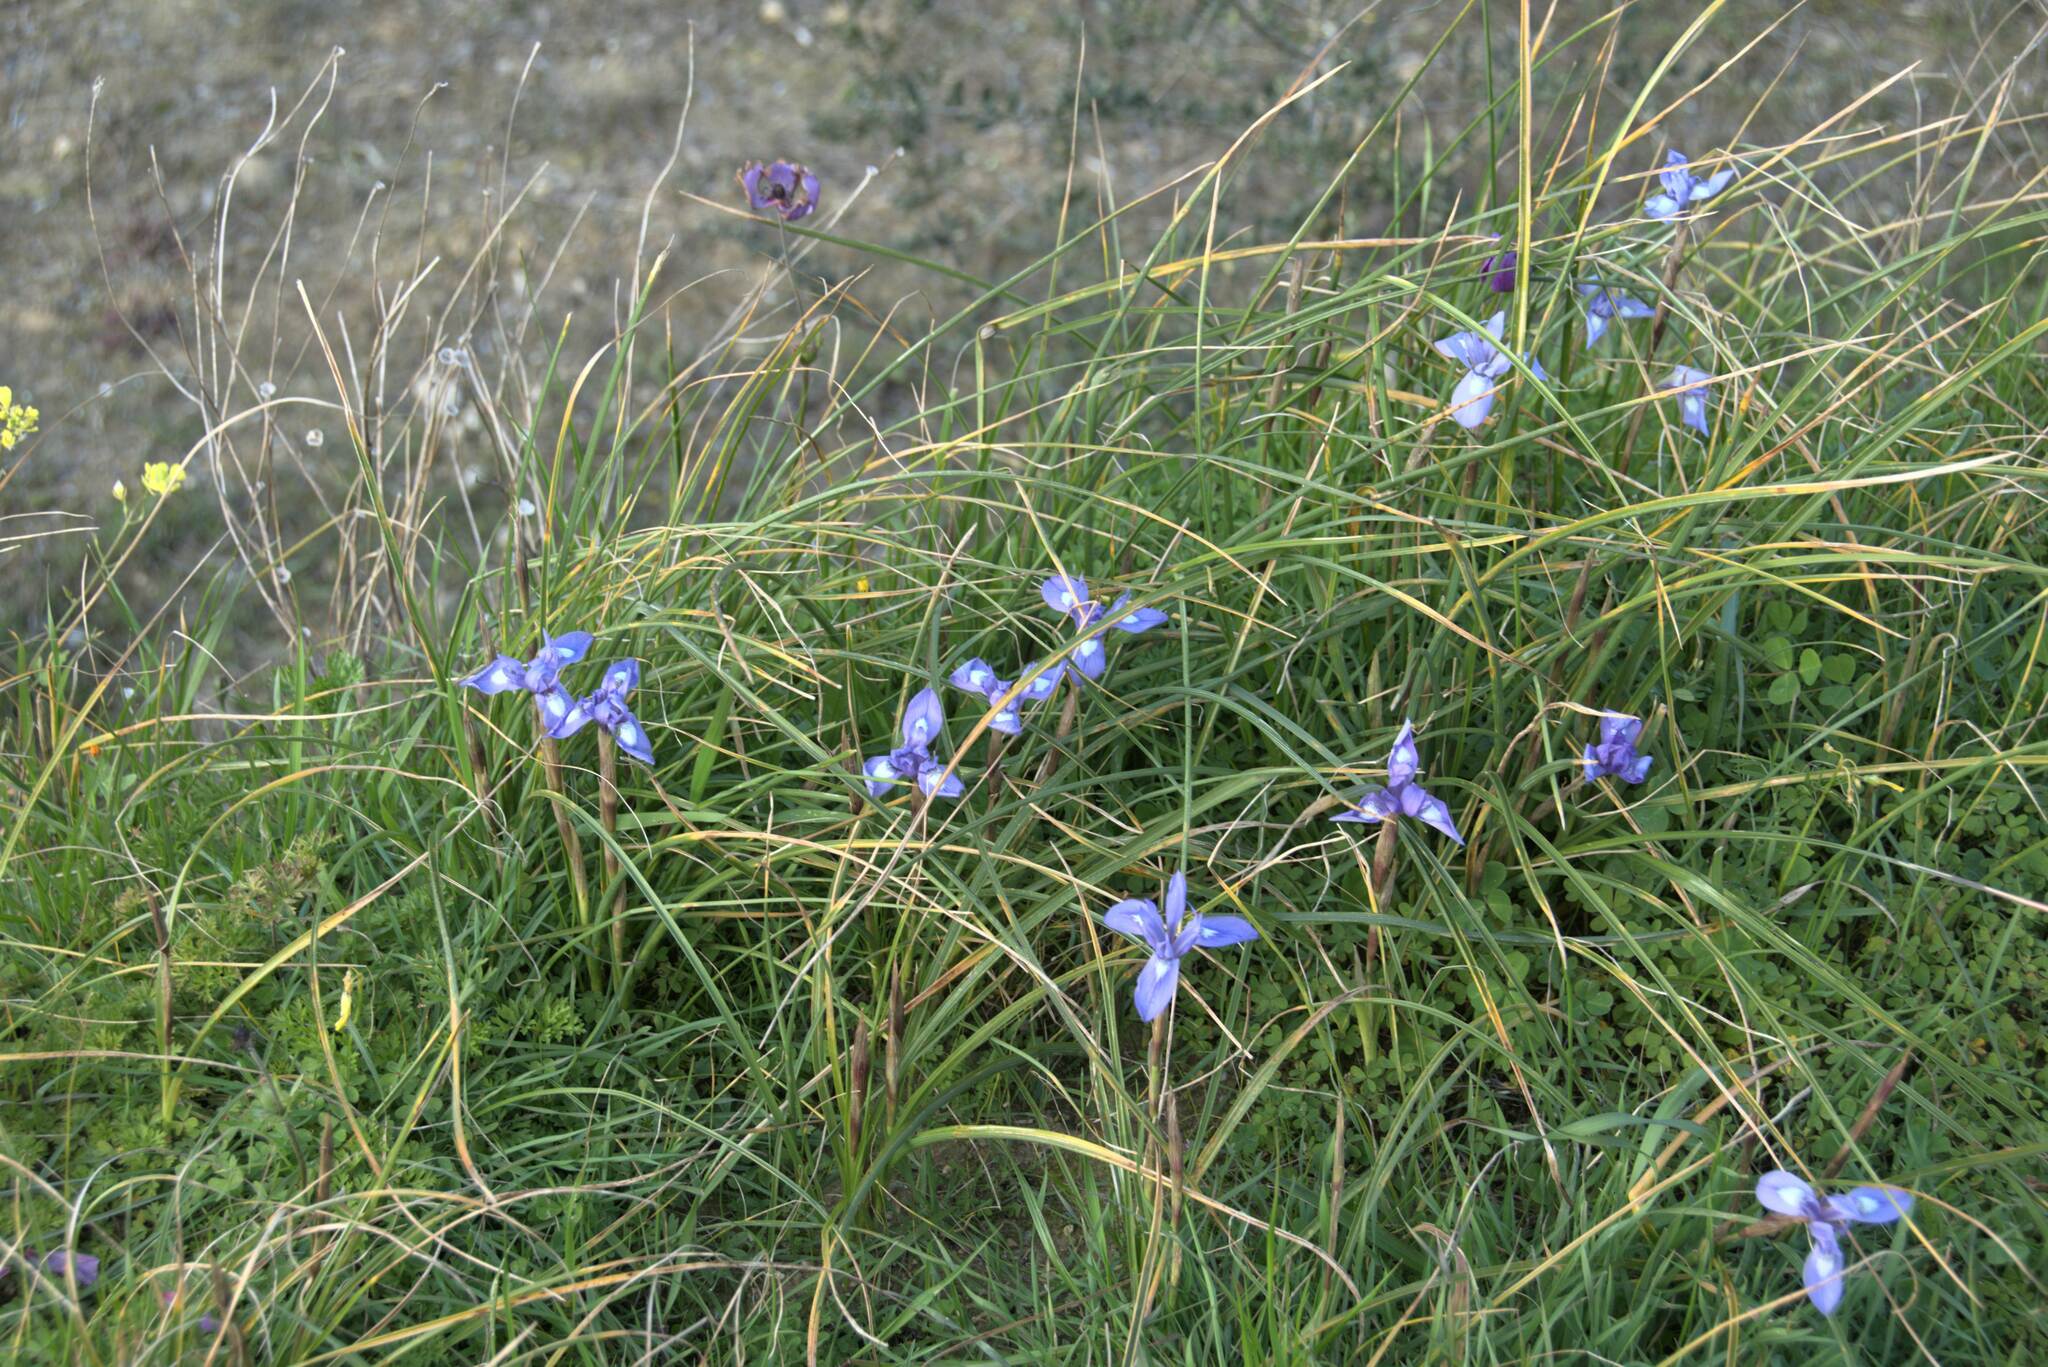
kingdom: Plantae
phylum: Tracheophyta
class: Liliopsida
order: Asparagales
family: Iridaceae
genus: Moraea
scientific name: Moraea sisyrinchium
